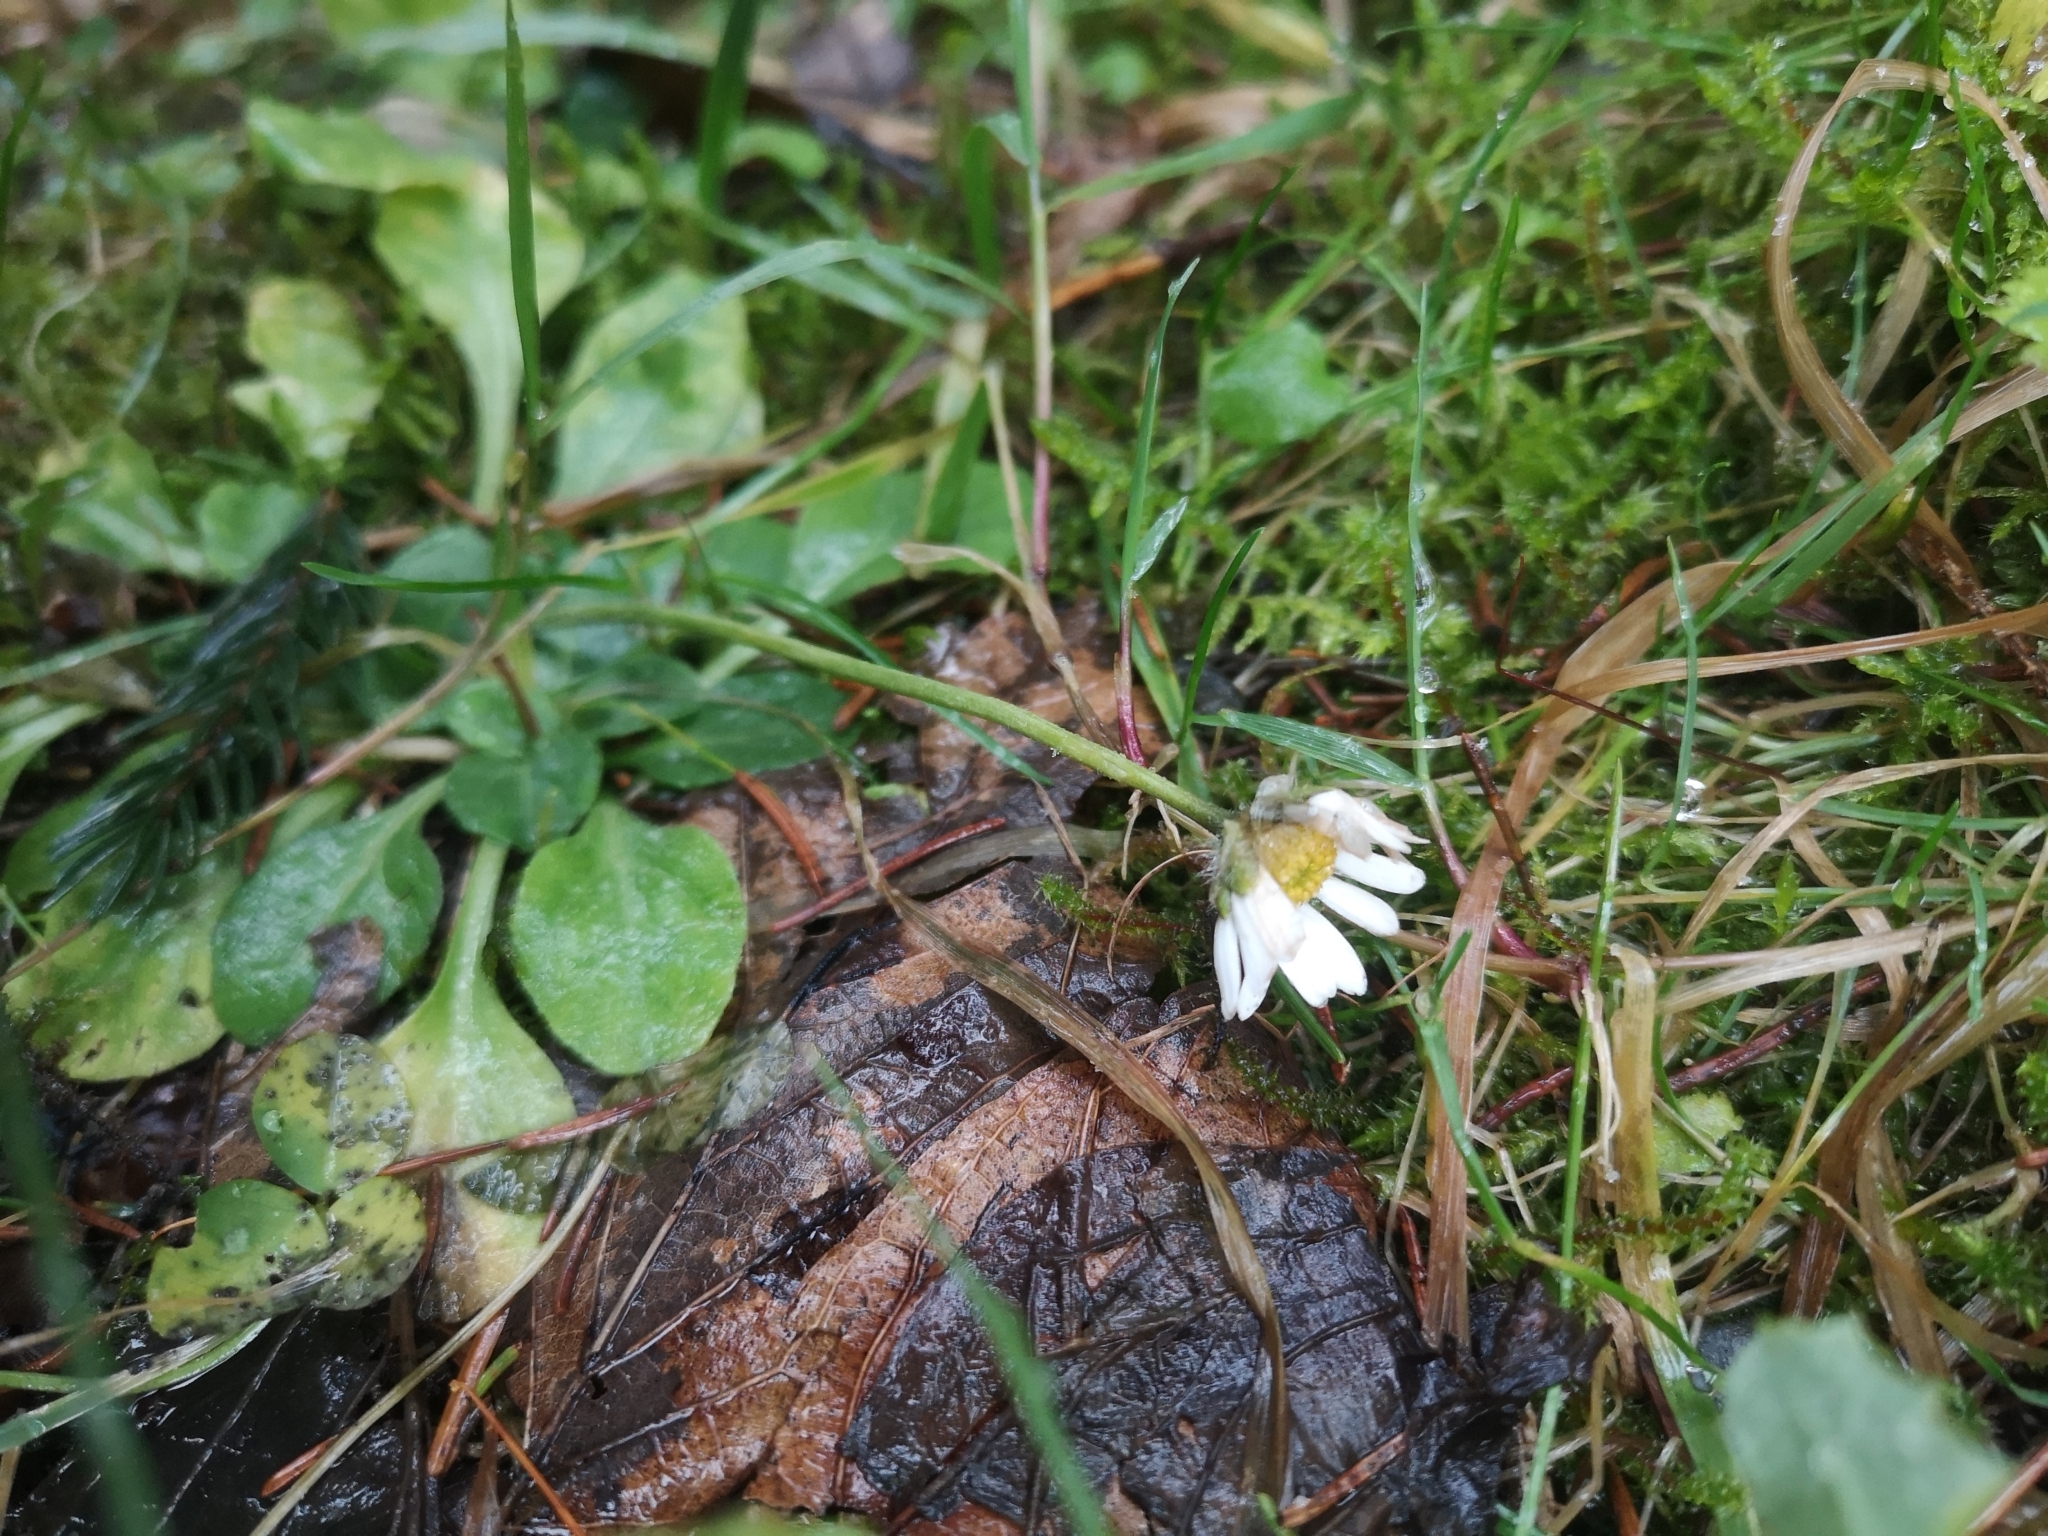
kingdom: Plantae
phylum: Tracheophyta
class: Magnoliopsida
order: Asterales
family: Asteraceae
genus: Bellis
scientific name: Bellis perennis
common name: Lawndaisy
